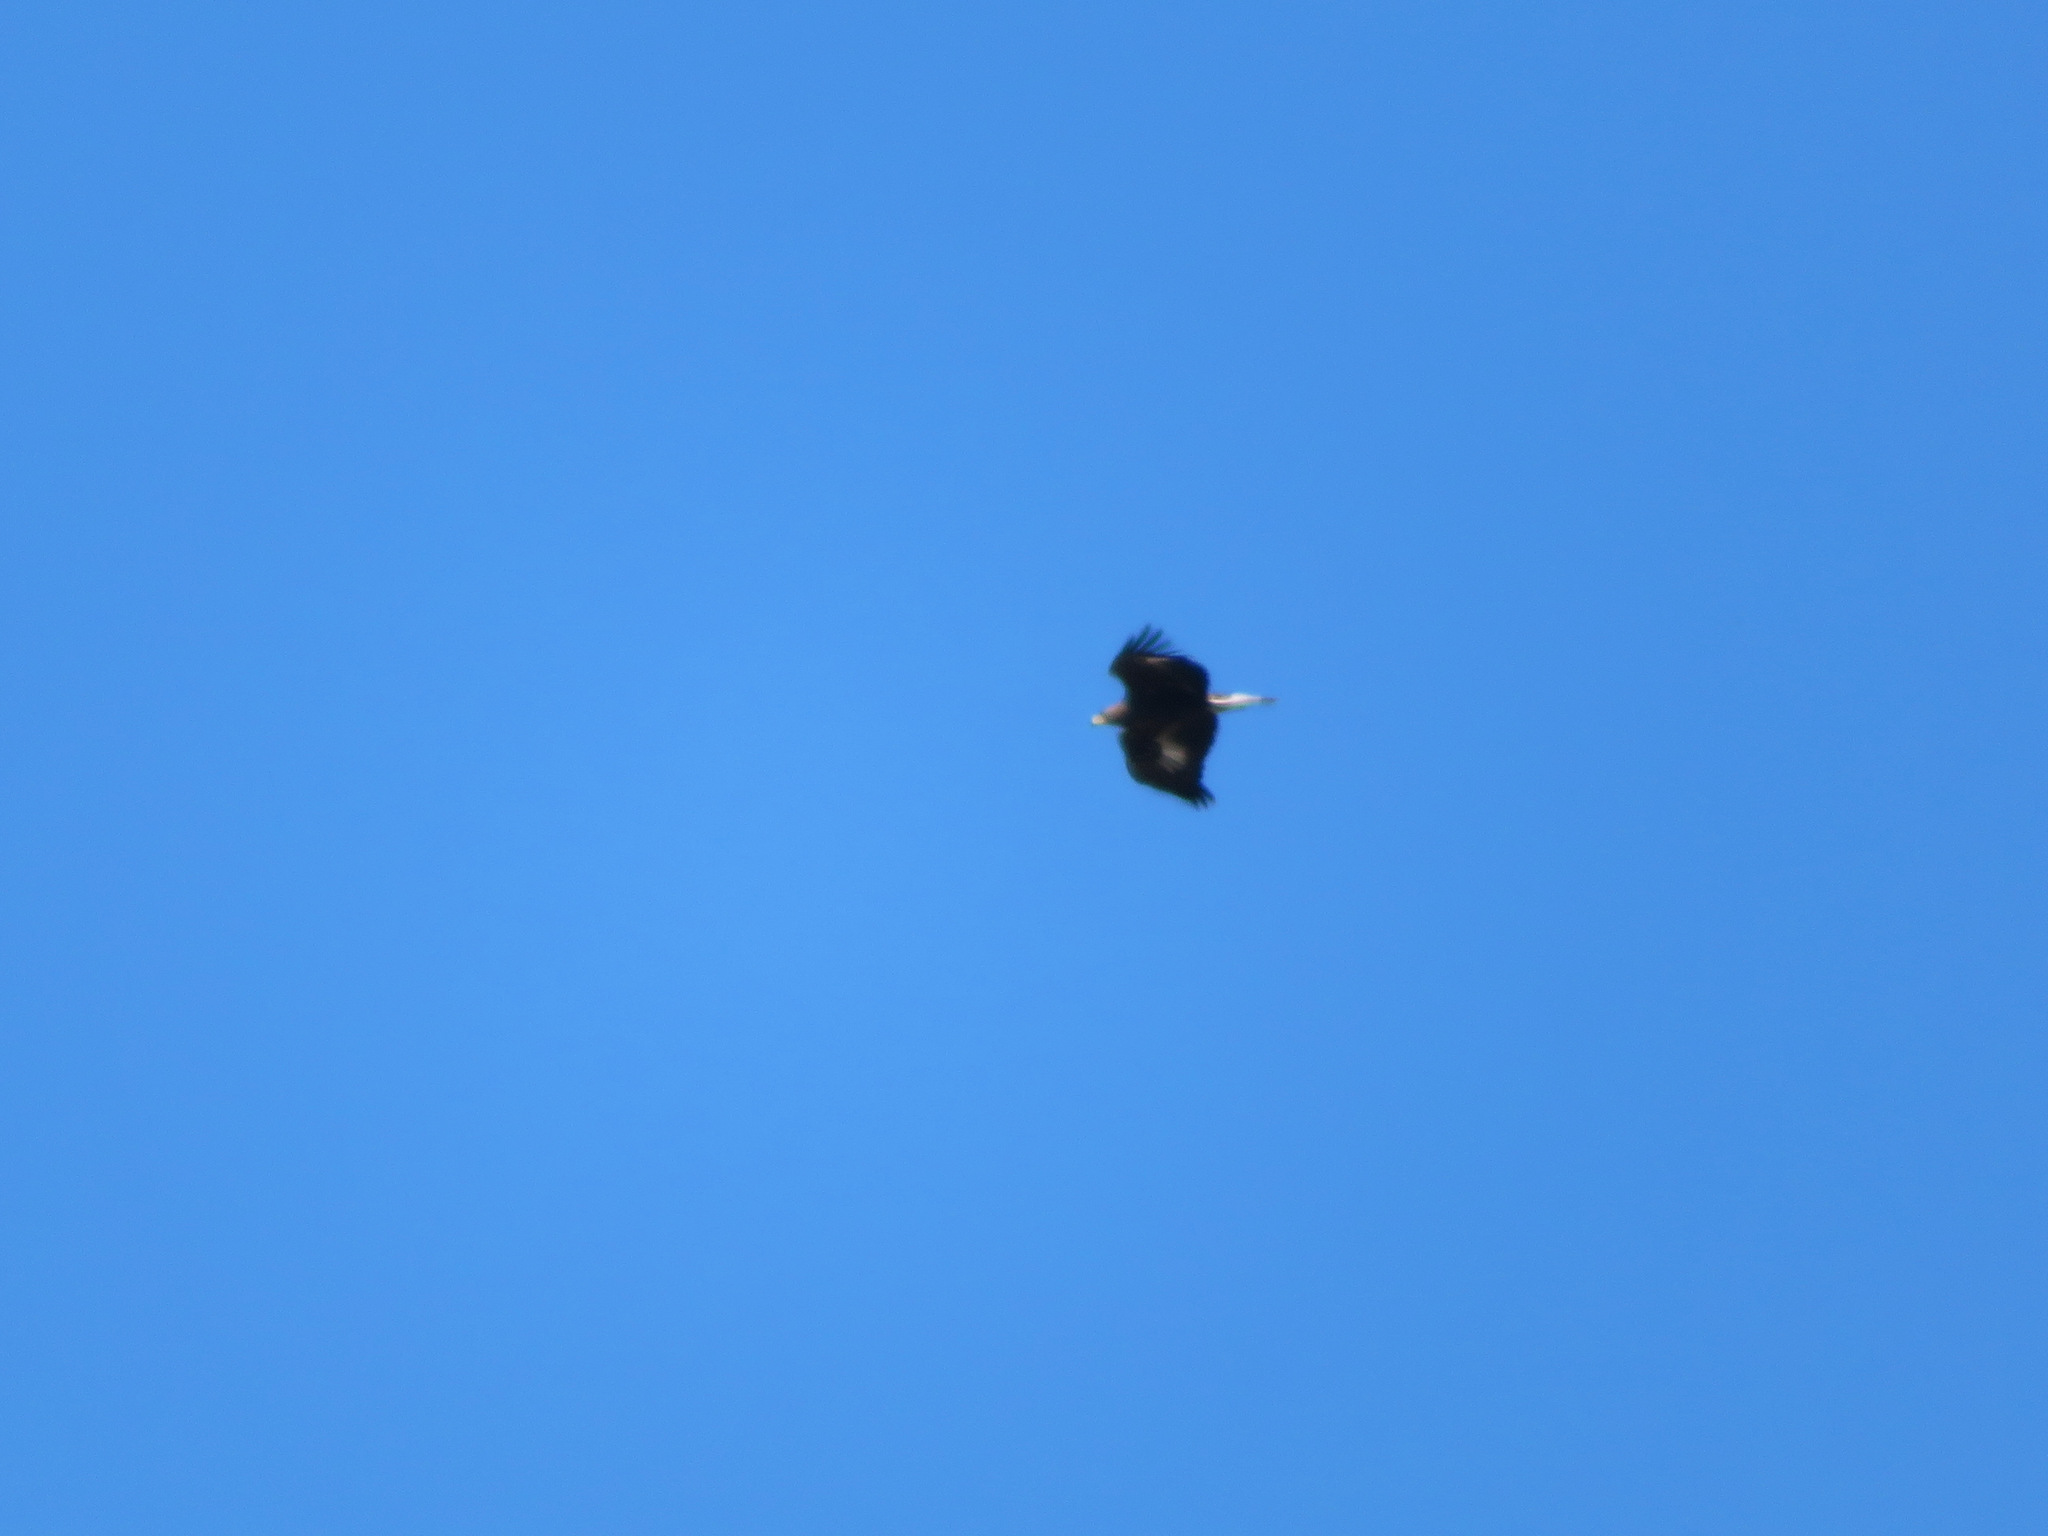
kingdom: Animalia
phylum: Chordata
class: Aves
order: Accipitriformes
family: Accipitridae
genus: Aquila
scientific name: Aquila chrysaetos
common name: Golden eagle
